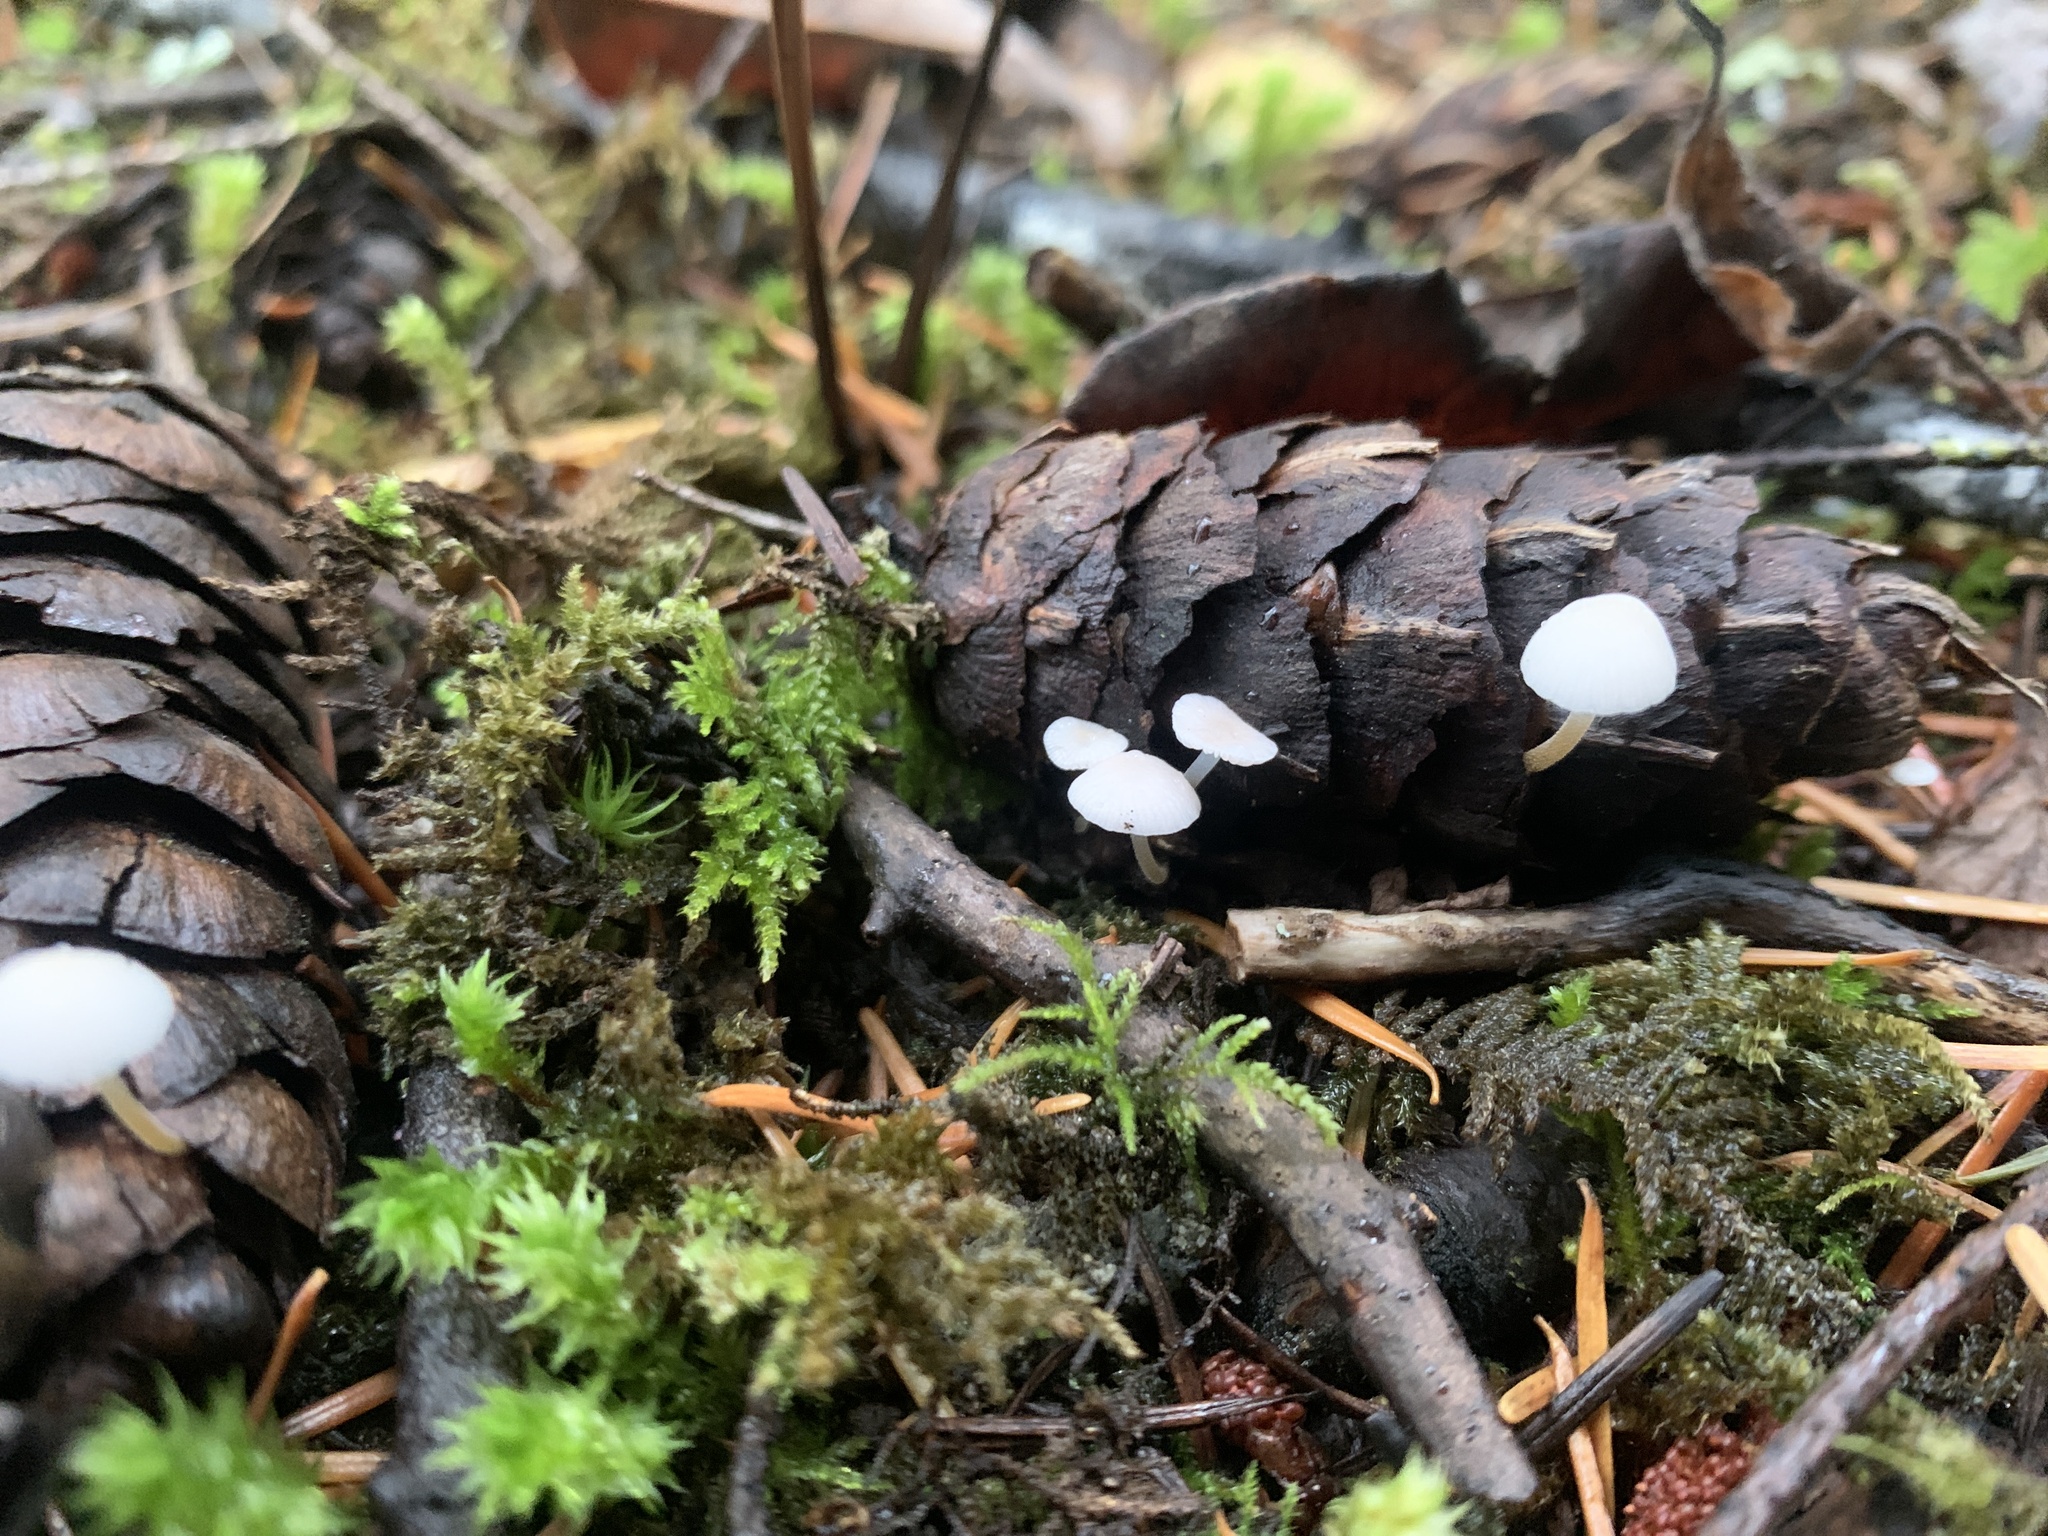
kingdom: Fungi
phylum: Basidiomycota
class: Agaricomycetes
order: Agaricales
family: Physalacriaceae
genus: Strobilurus
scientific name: Strobilurus trullisatus
